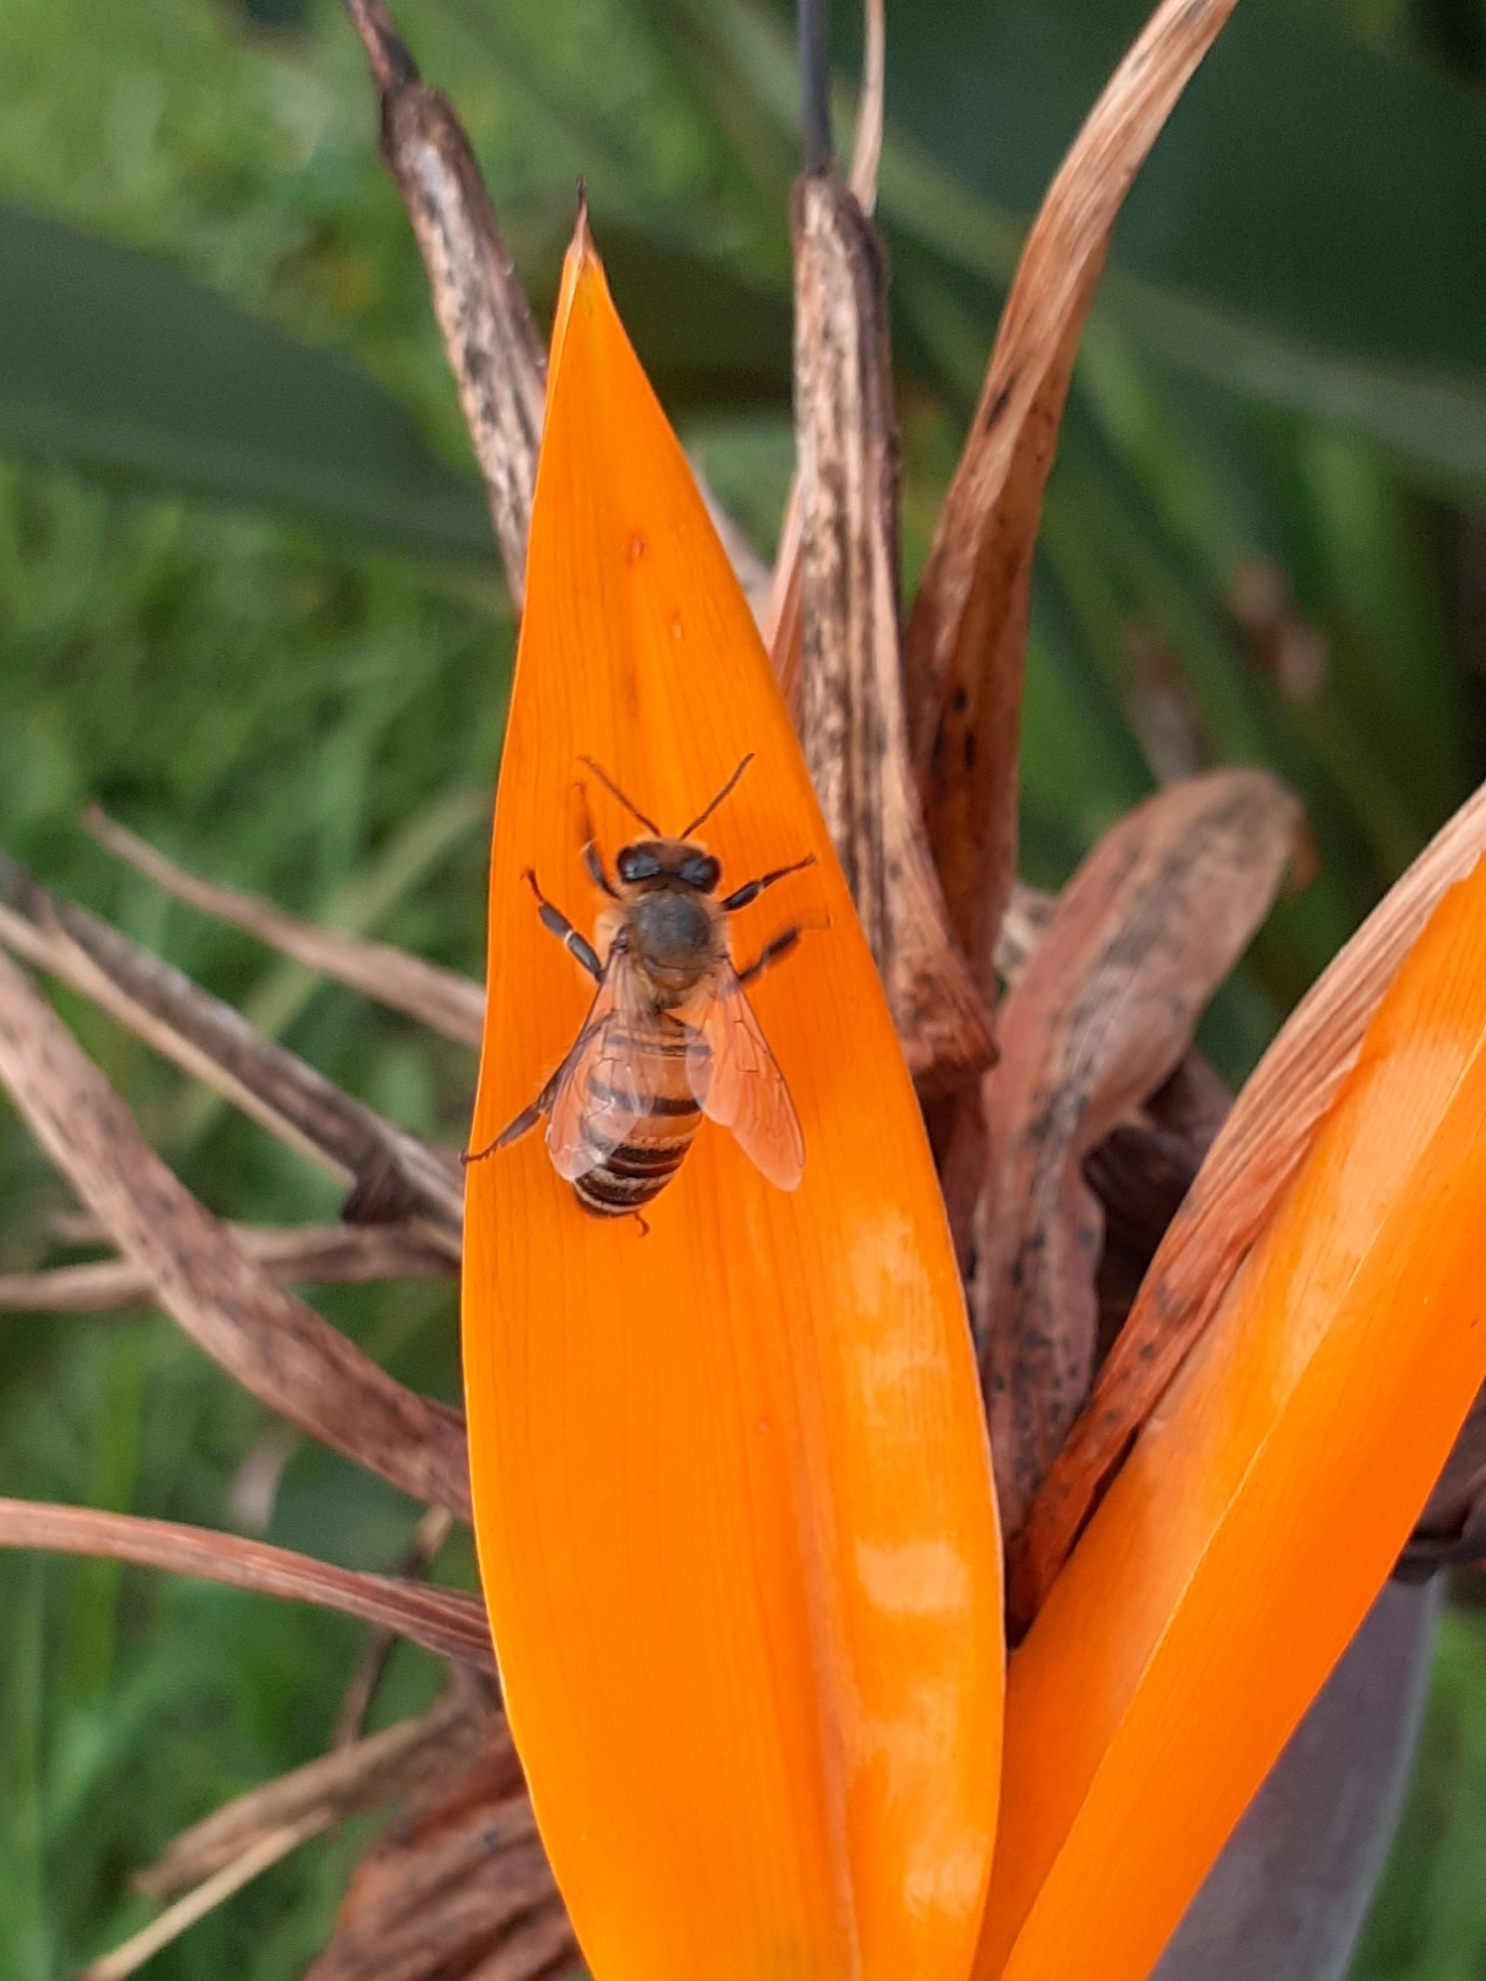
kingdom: Animalia
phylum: Arthropoda
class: Insecta
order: Hymenoptera
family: Apidae
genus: Apis
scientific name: Apis mellifera
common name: Honey bee
